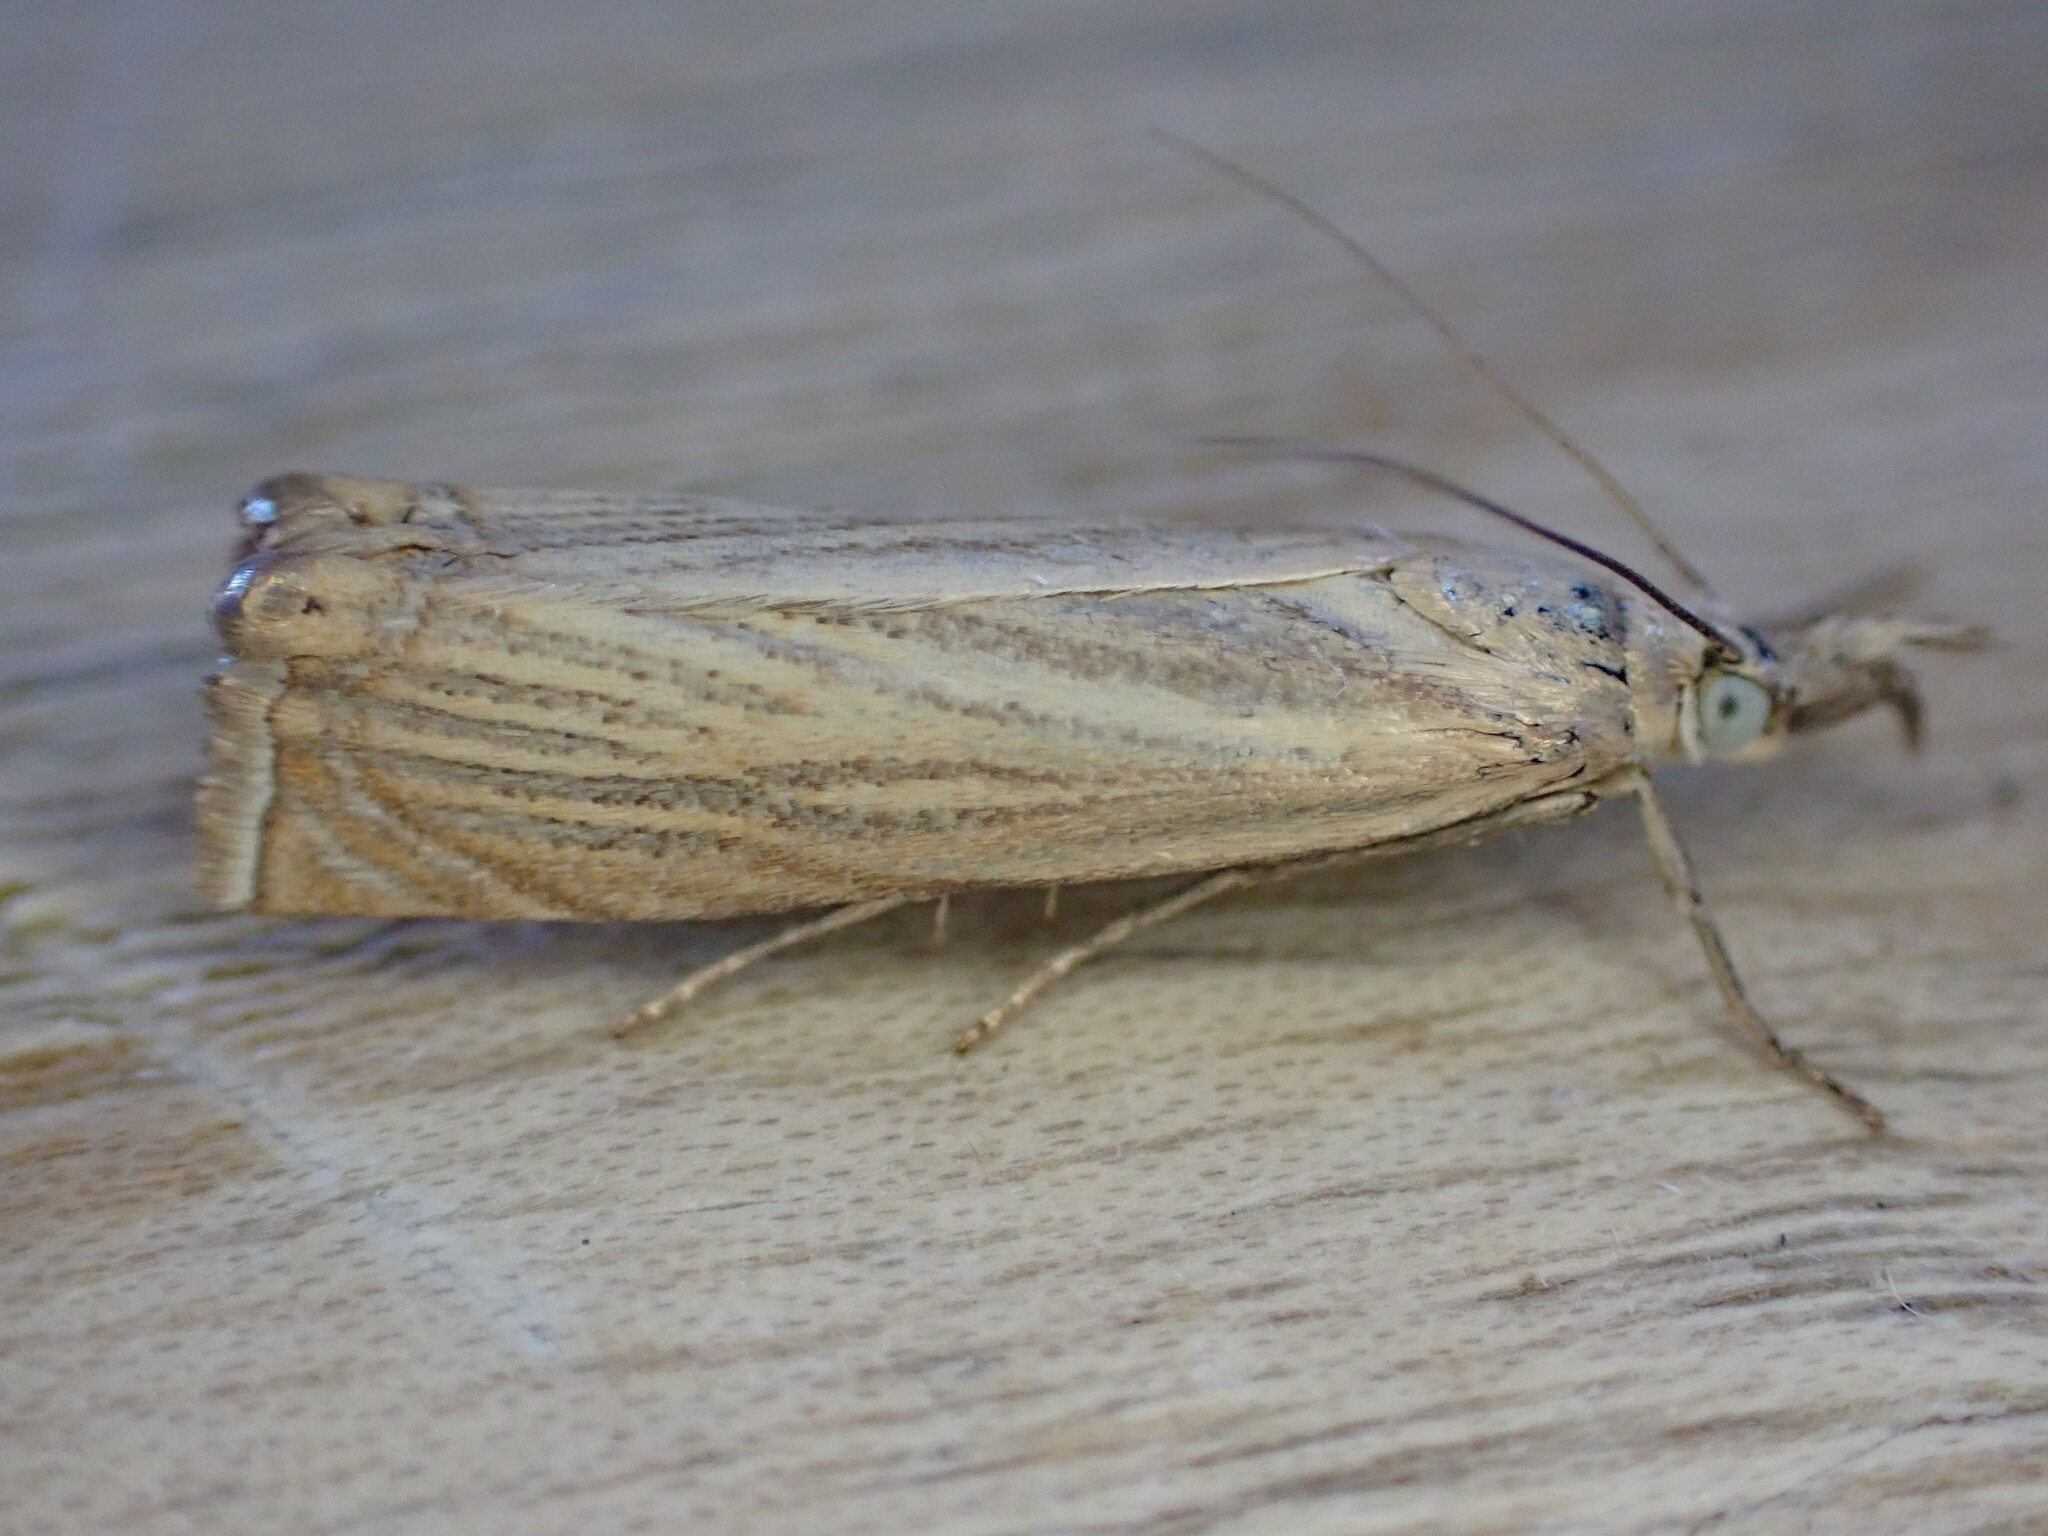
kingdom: Animalia
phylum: Arthropoda
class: Insecta
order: Lepidoptera
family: Crambidae
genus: Chrysoteuchia
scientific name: Chrysoteuchia culmella
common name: Garden grass-veneer
